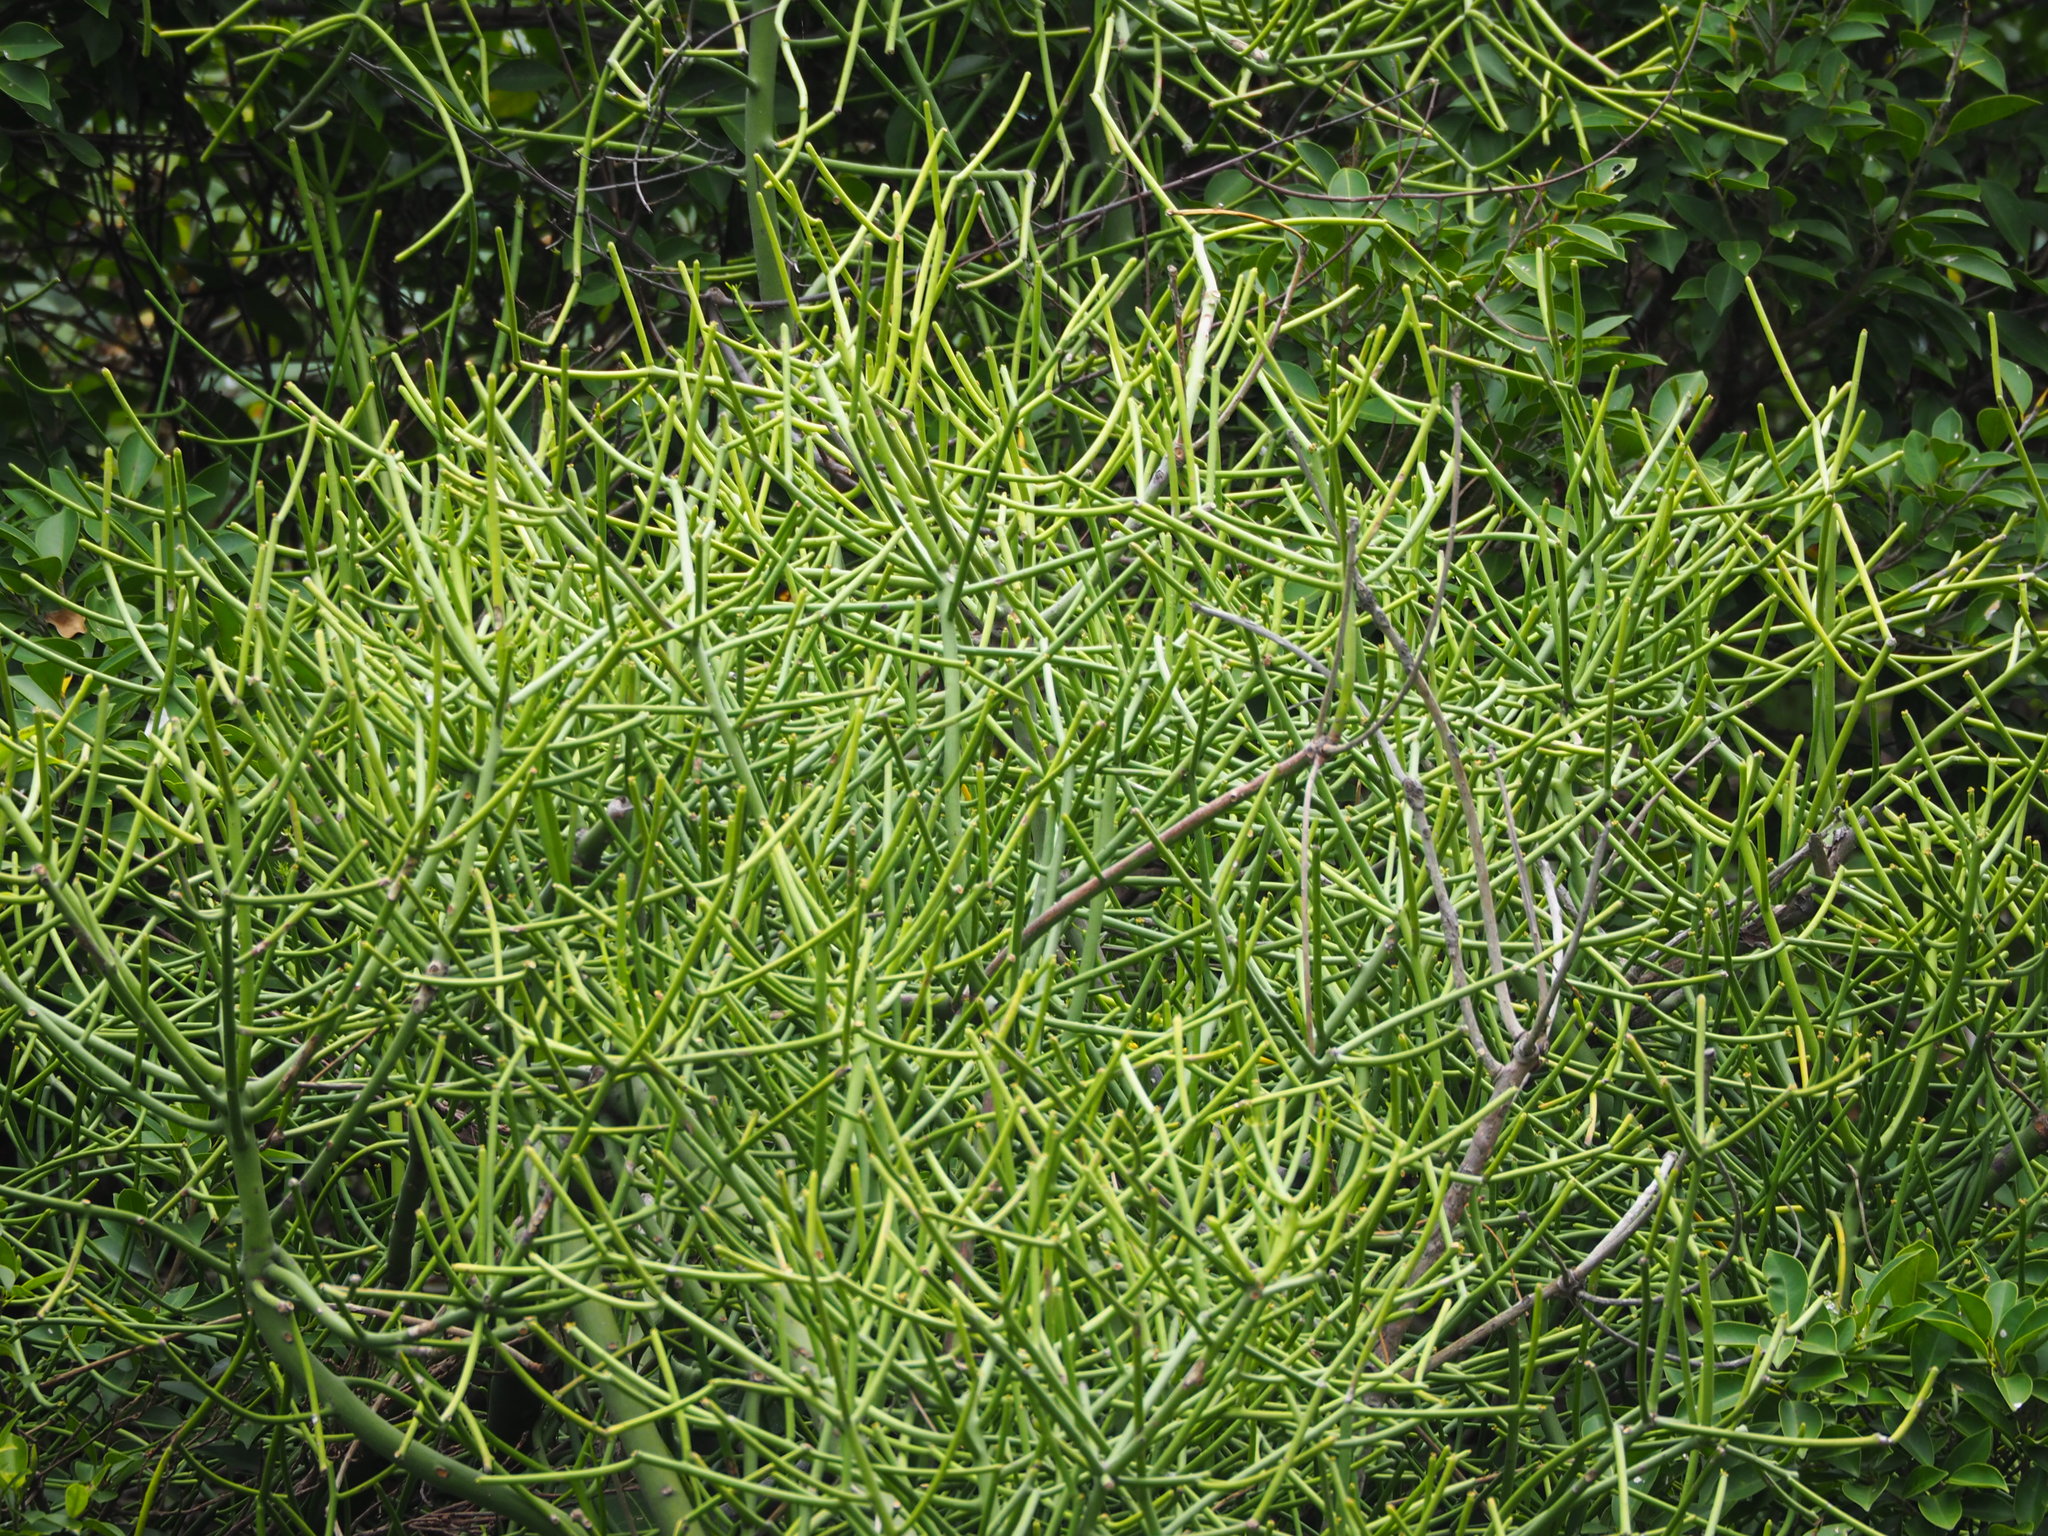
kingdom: Plantae
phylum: Tracheophyta
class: Magnoliopsida
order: Malpighiales
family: Euphorbiaceae
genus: Euphorbia
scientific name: Euphorbia tirucalli
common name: Indiantree spurge
